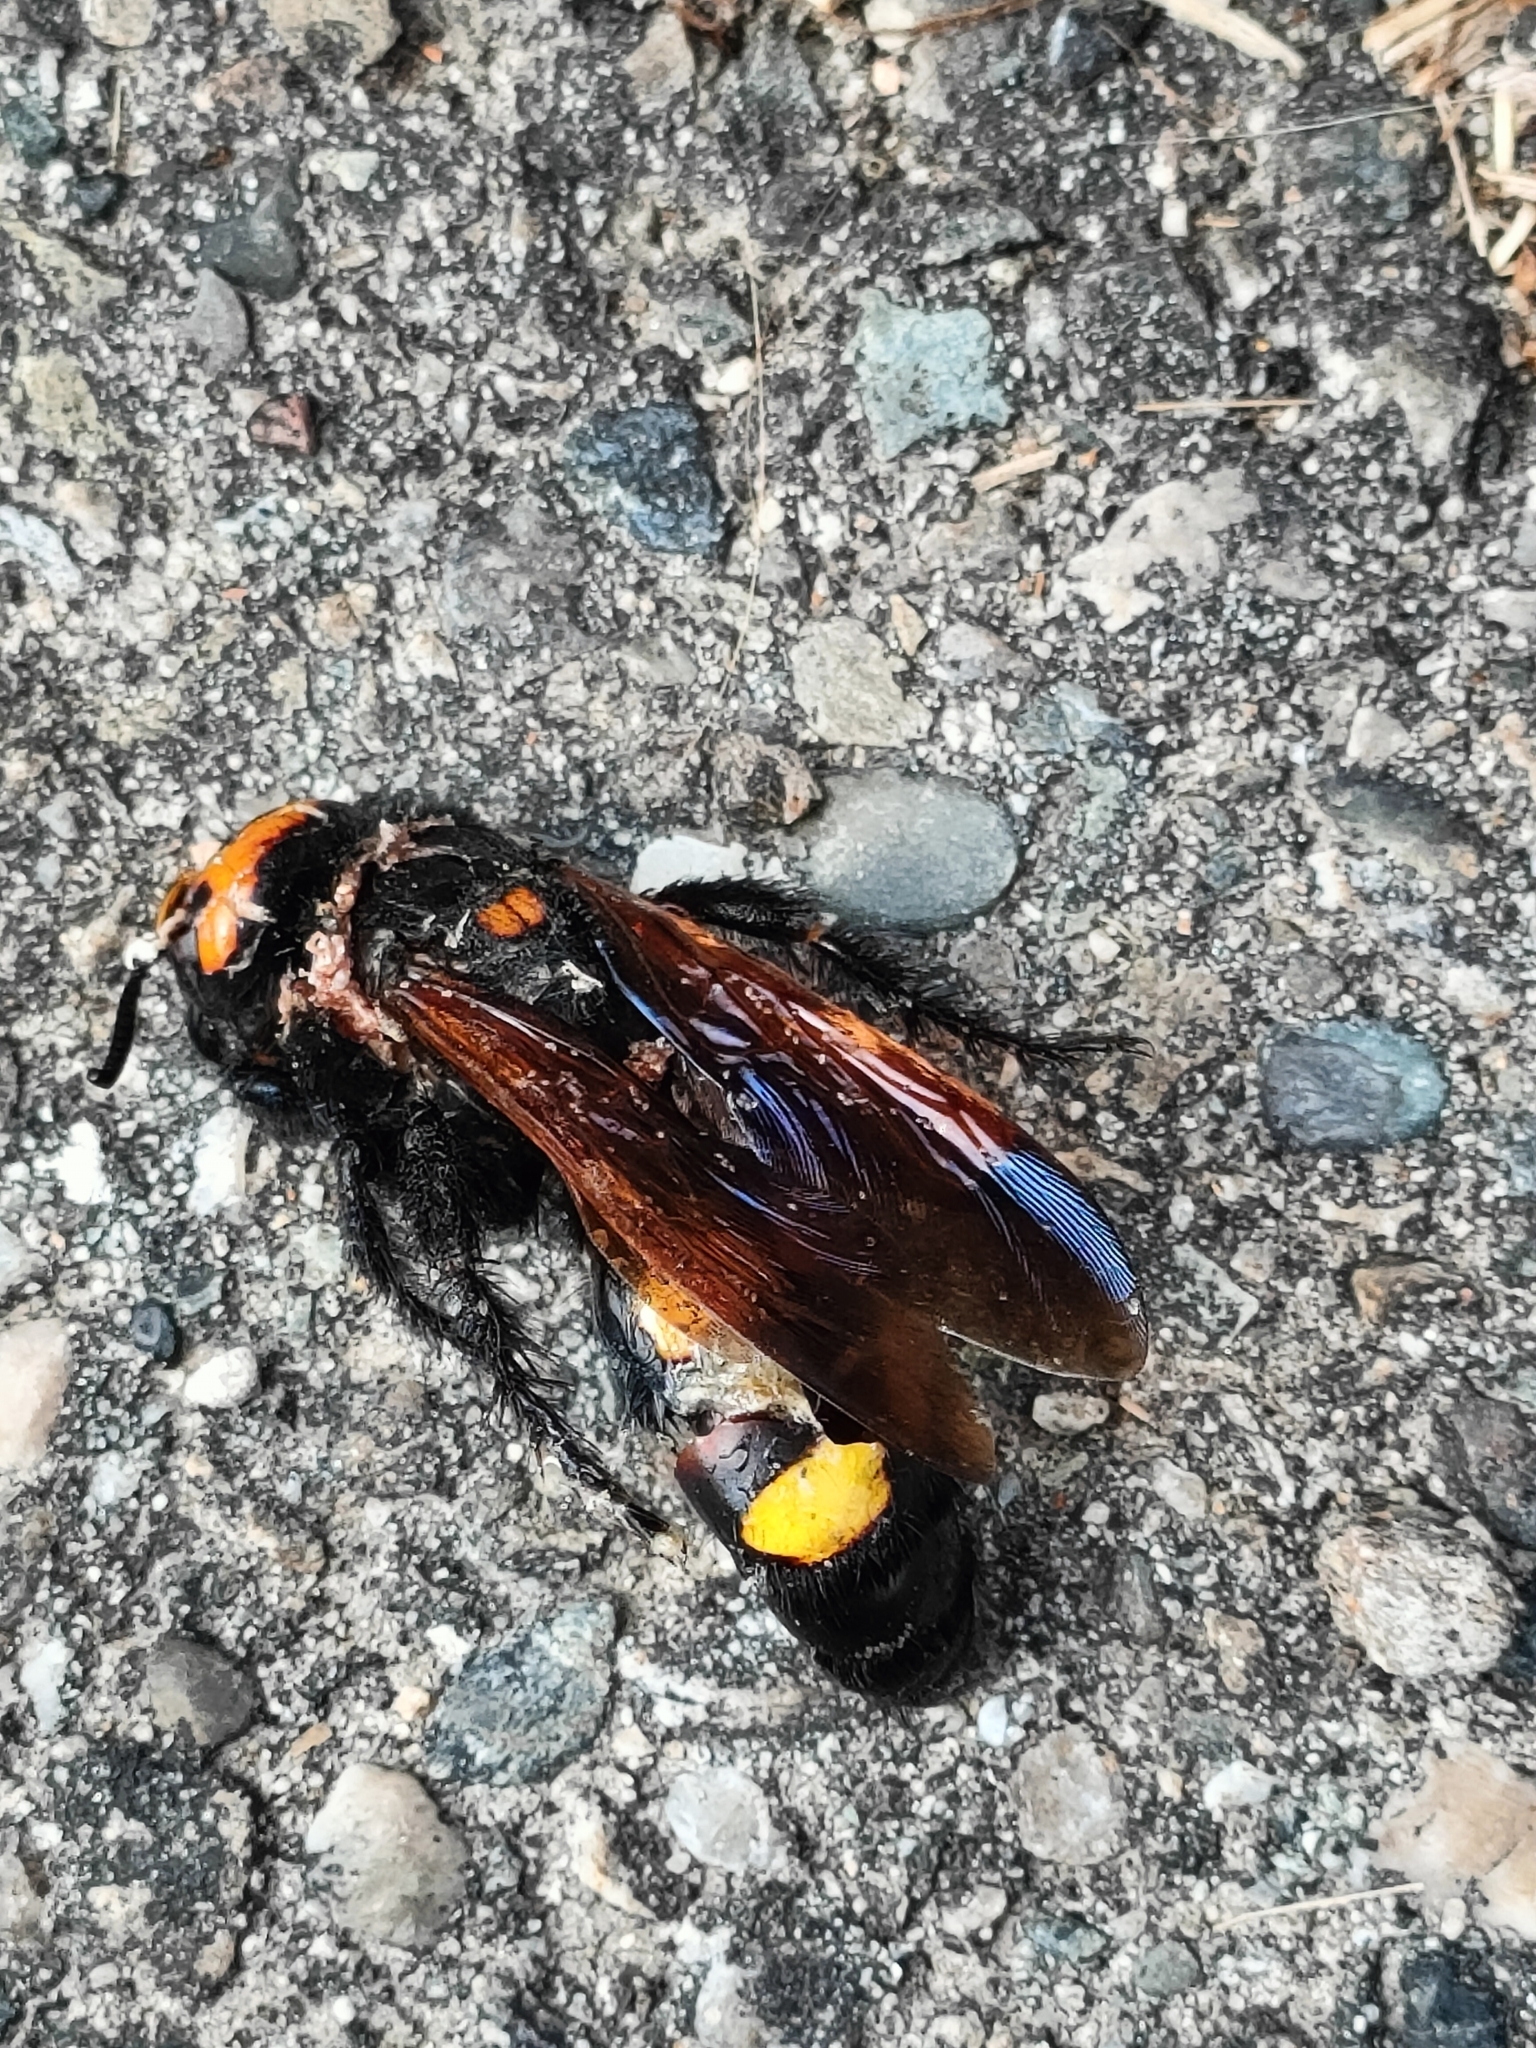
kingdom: Animalia
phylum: Arthropoda
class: Insecta
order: Hymenoptera
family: Scoliidae
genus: Megascolia
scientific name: Megascolia maculata
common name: Mammoth wasp
